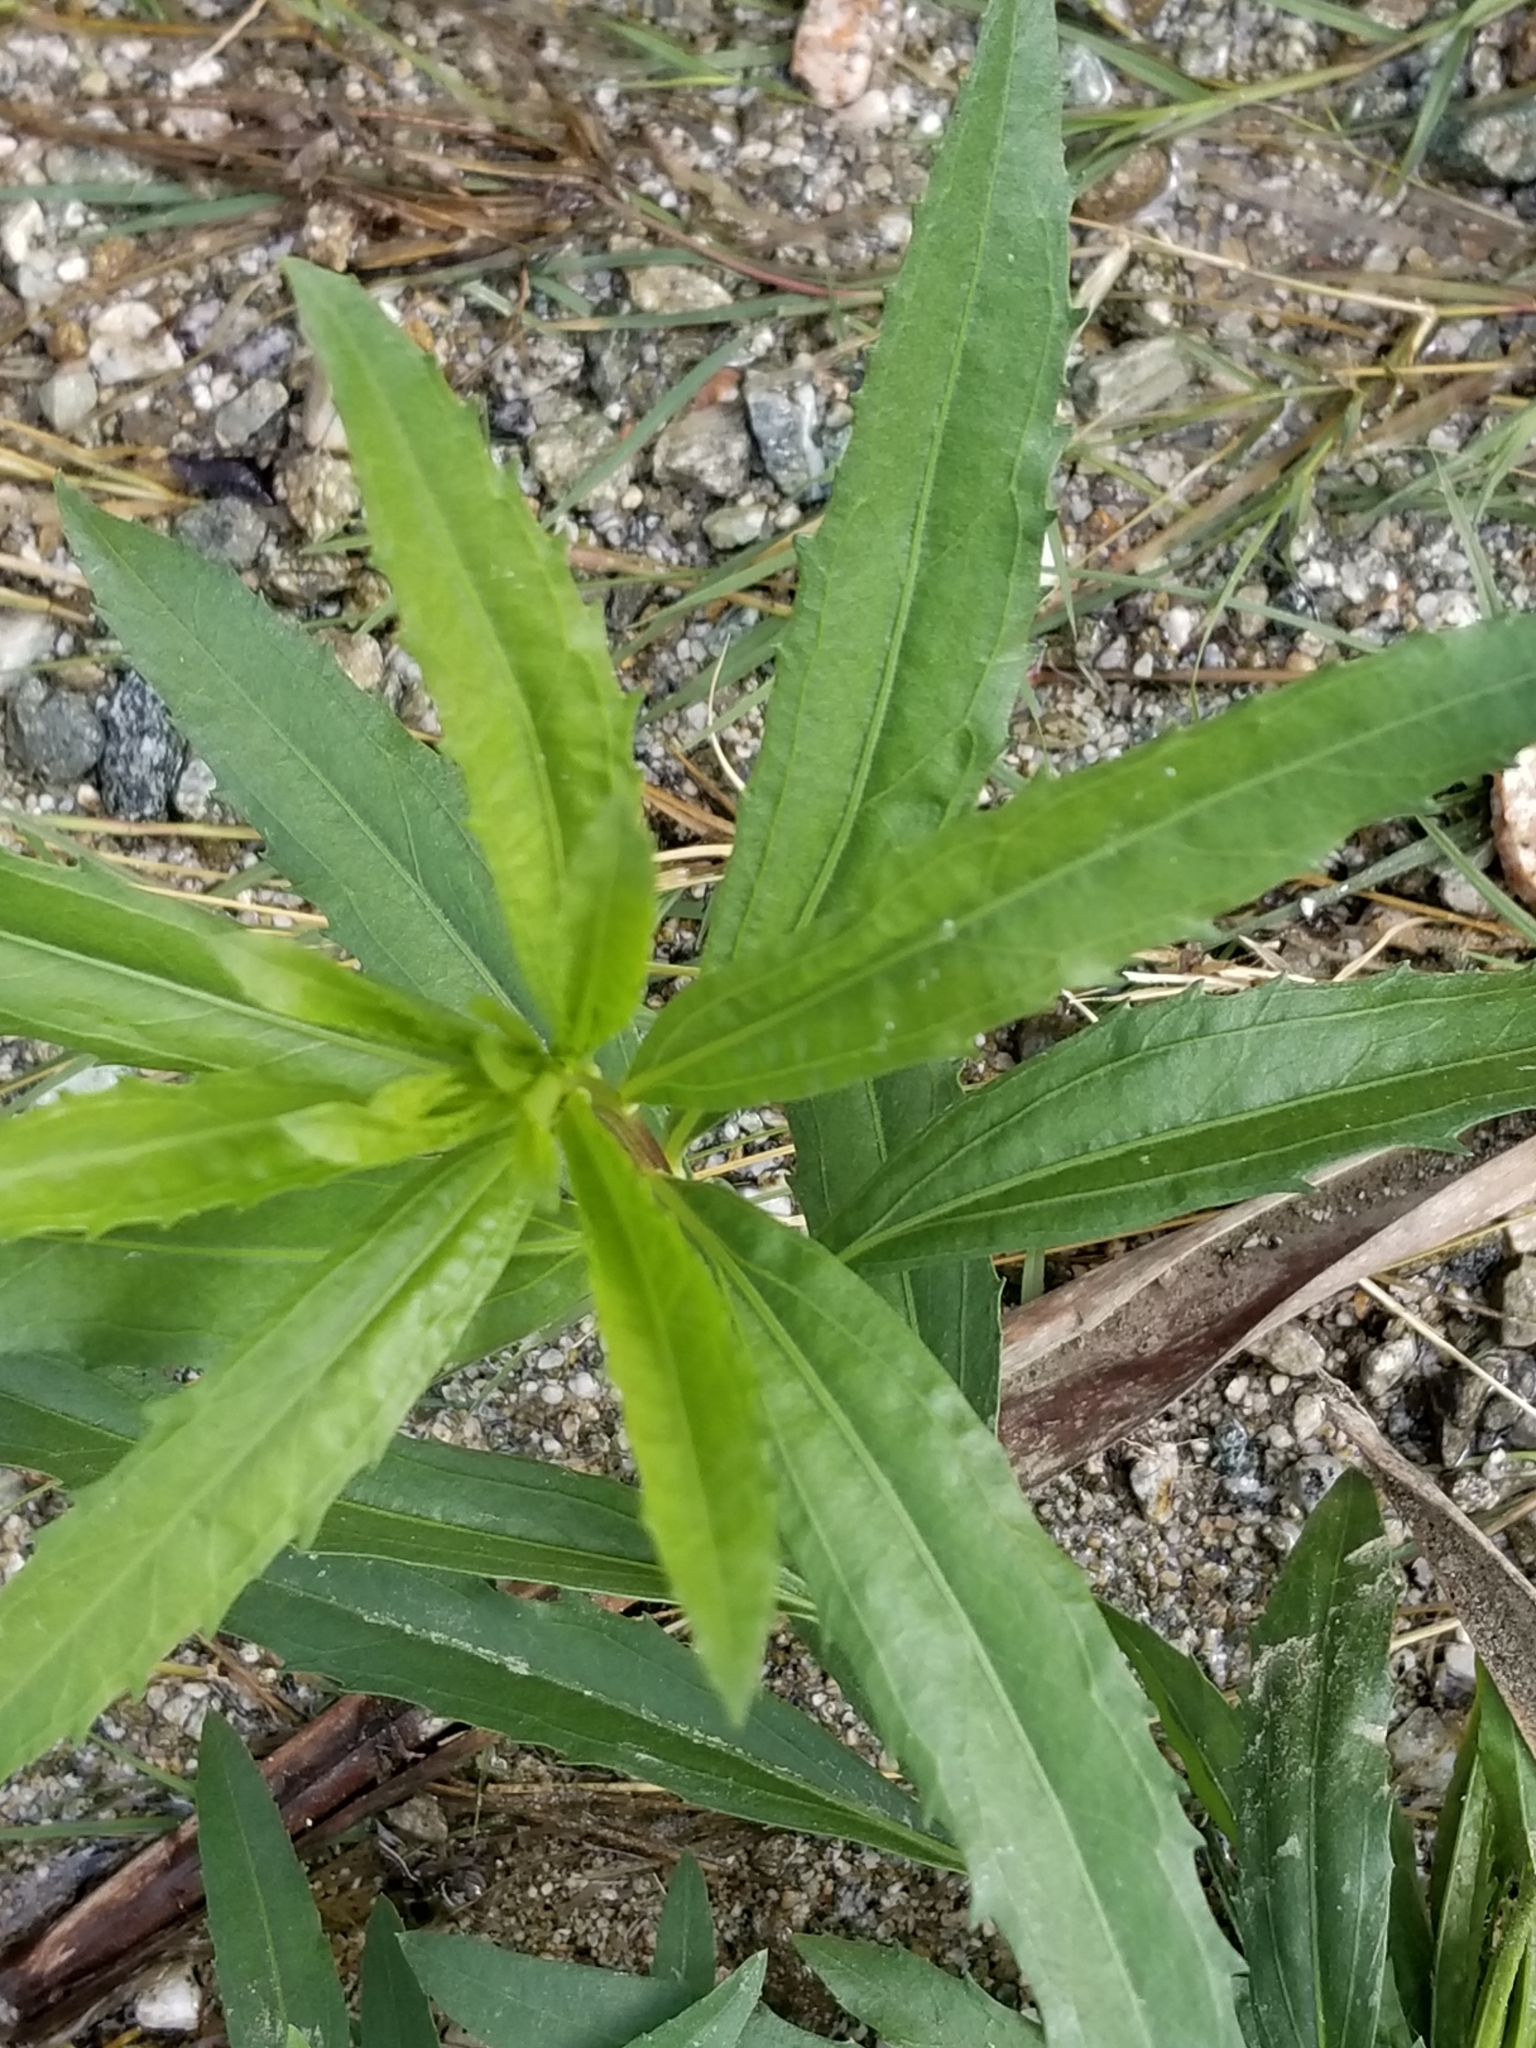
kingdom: Plantae
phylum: Tracheophyta
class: Magnoliopsida
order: Asterales
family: Asteraceae
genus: Baccharis
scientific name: Baccharis salicifolia
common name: Sticky baccharis
